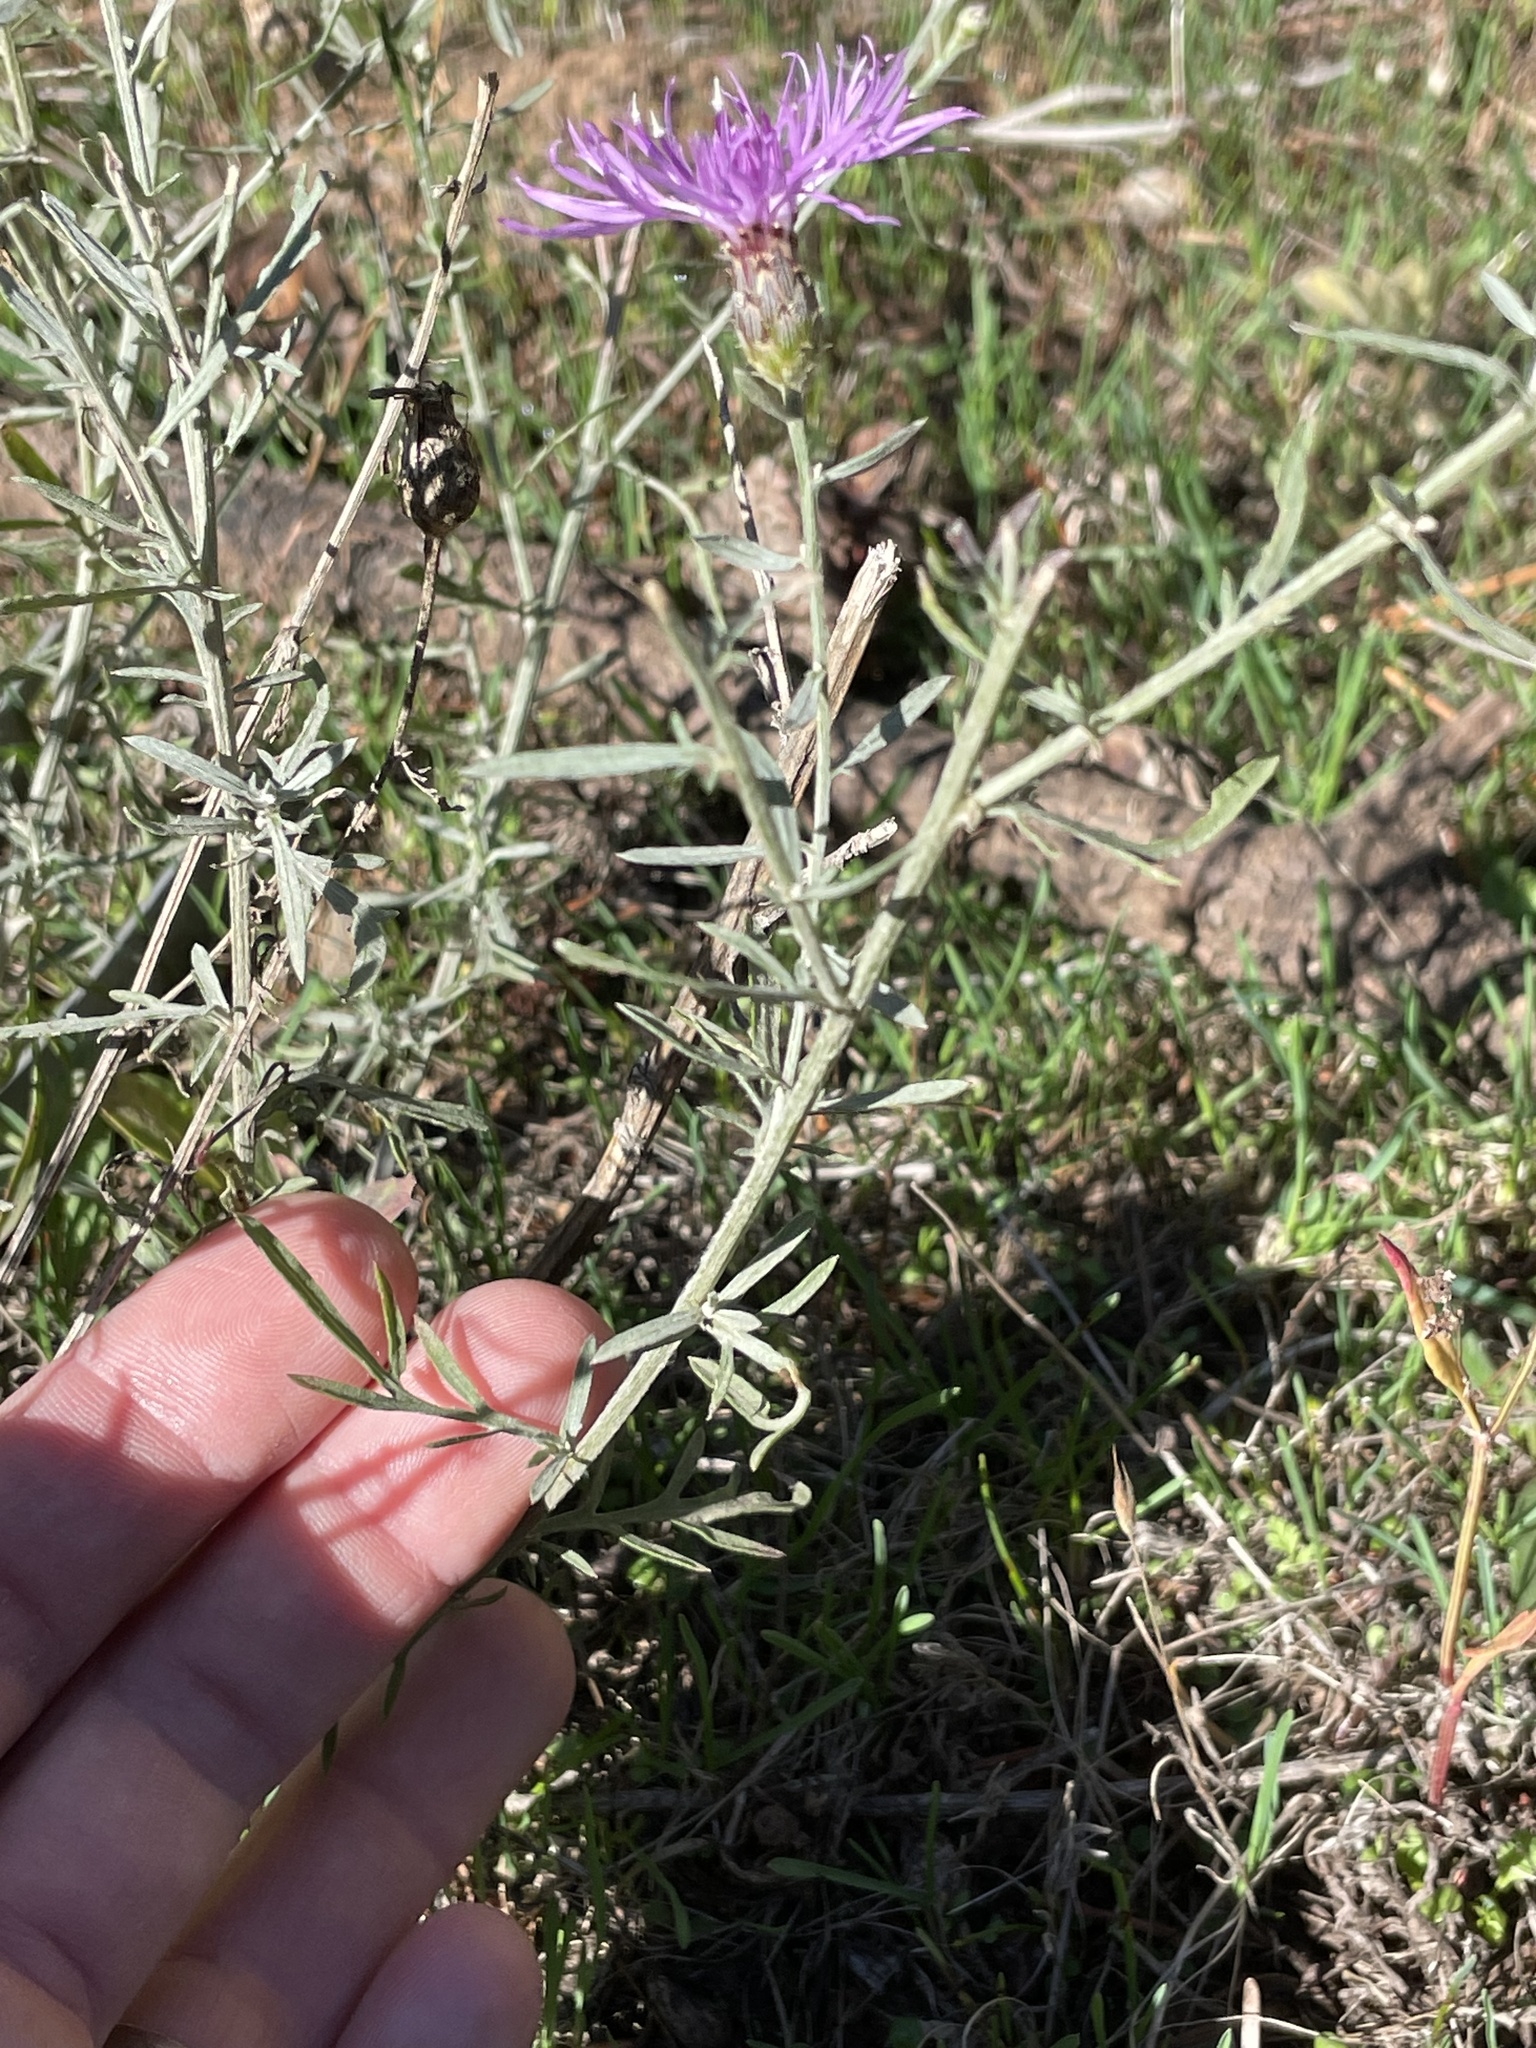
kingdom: Plantae
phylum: Tracheophyta
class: Magnoliopsida
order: Asterales
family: Asteraceae
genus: Centaurea
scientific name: Centaurea stoebe
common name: Spotted knapweed
